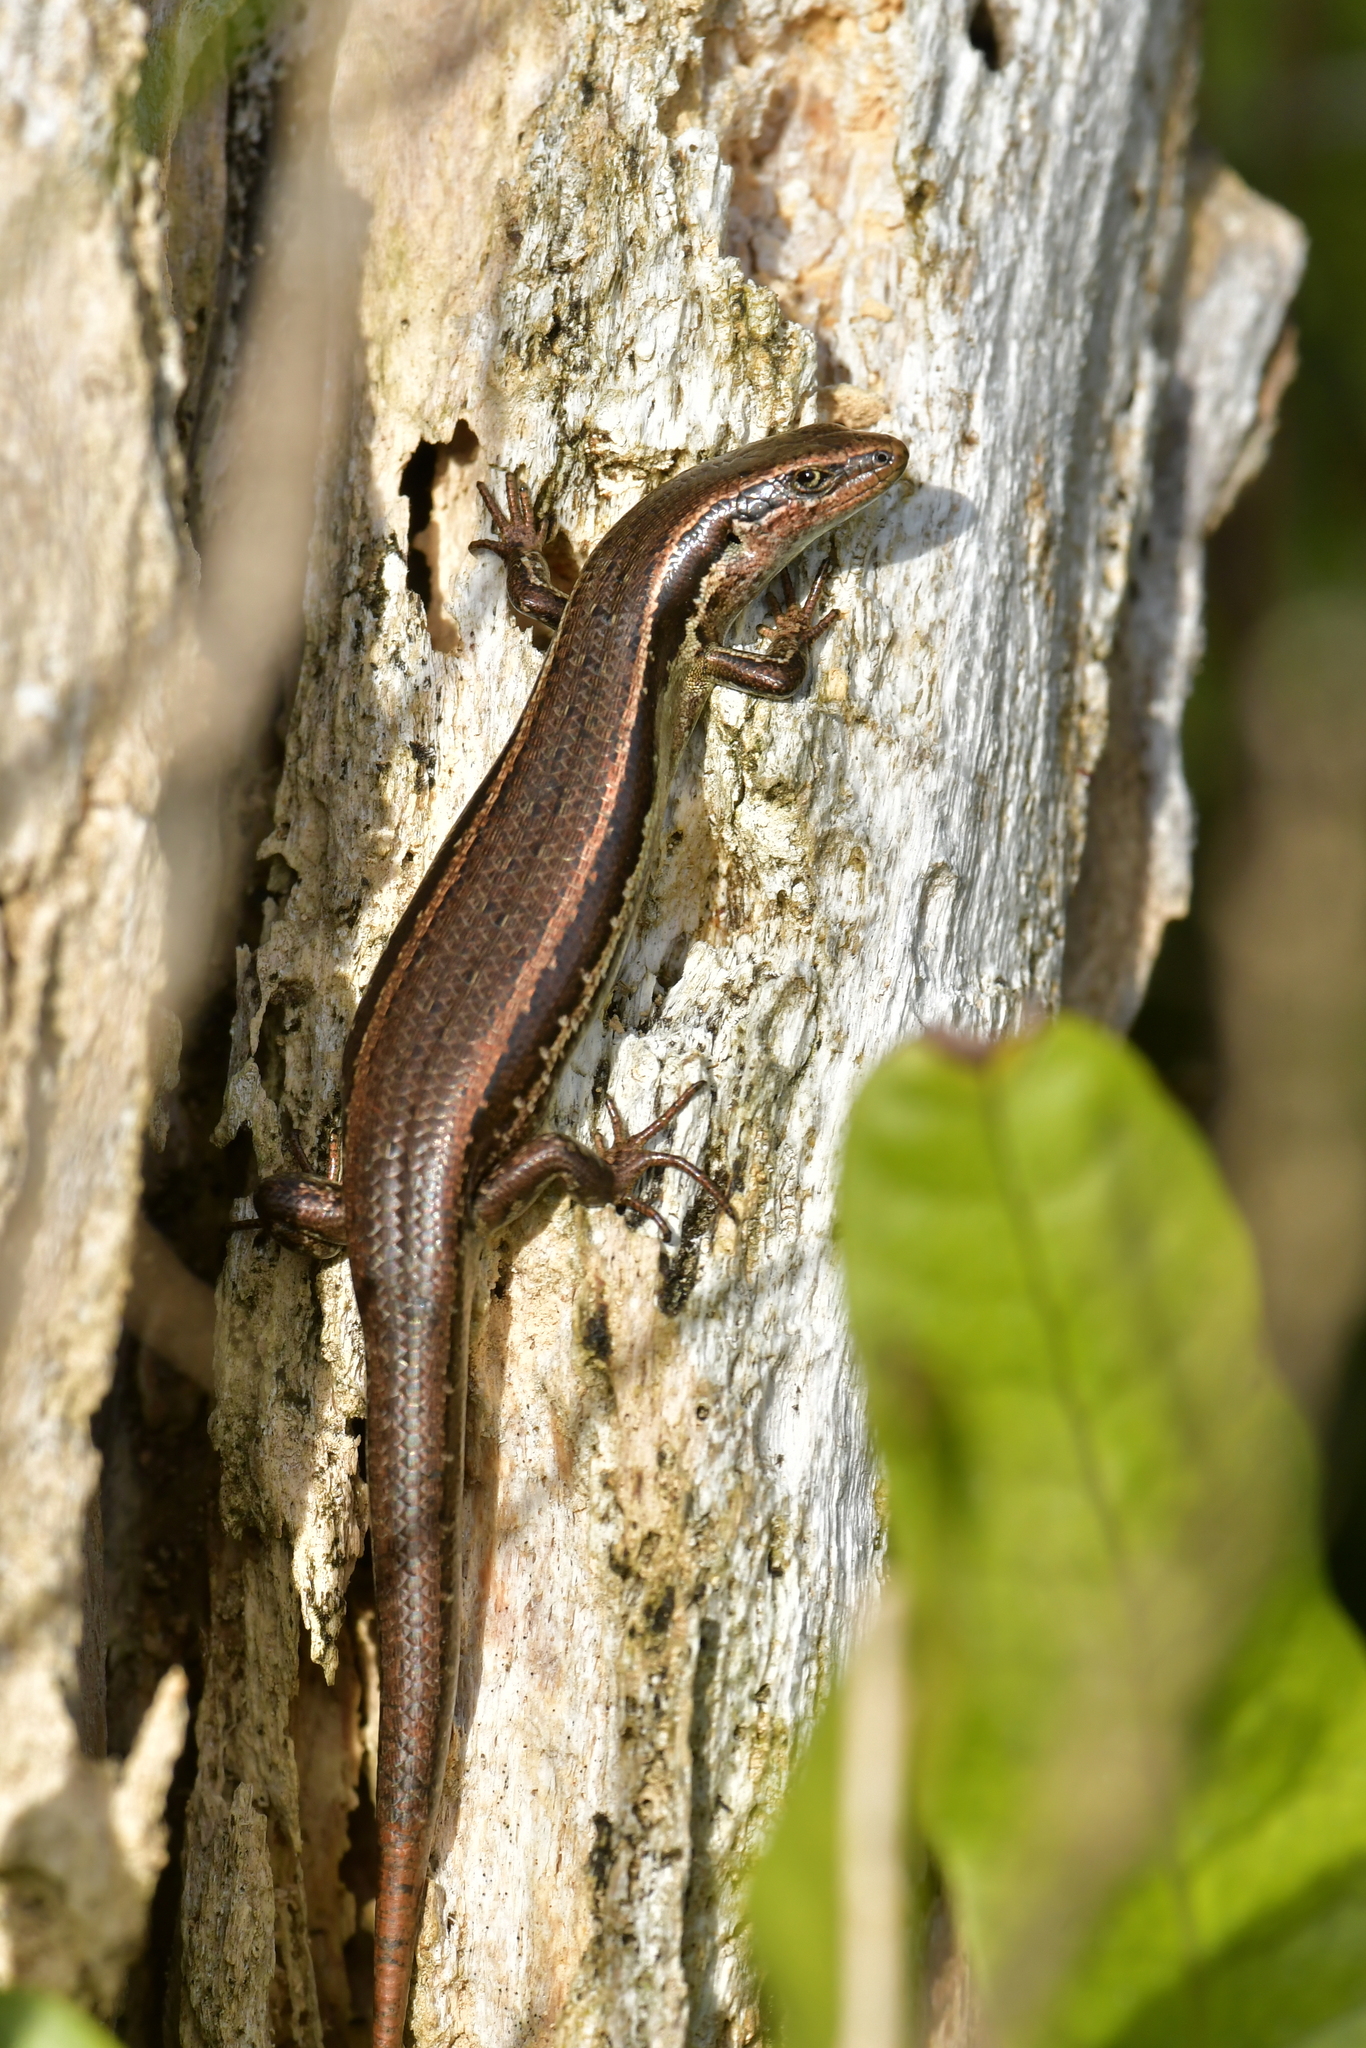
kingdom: Animalia
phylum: Chordata
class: Squamata
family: Scincidae
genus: Oligosoma
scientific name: Oligosoma polychroma
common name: Common new zealand skink
